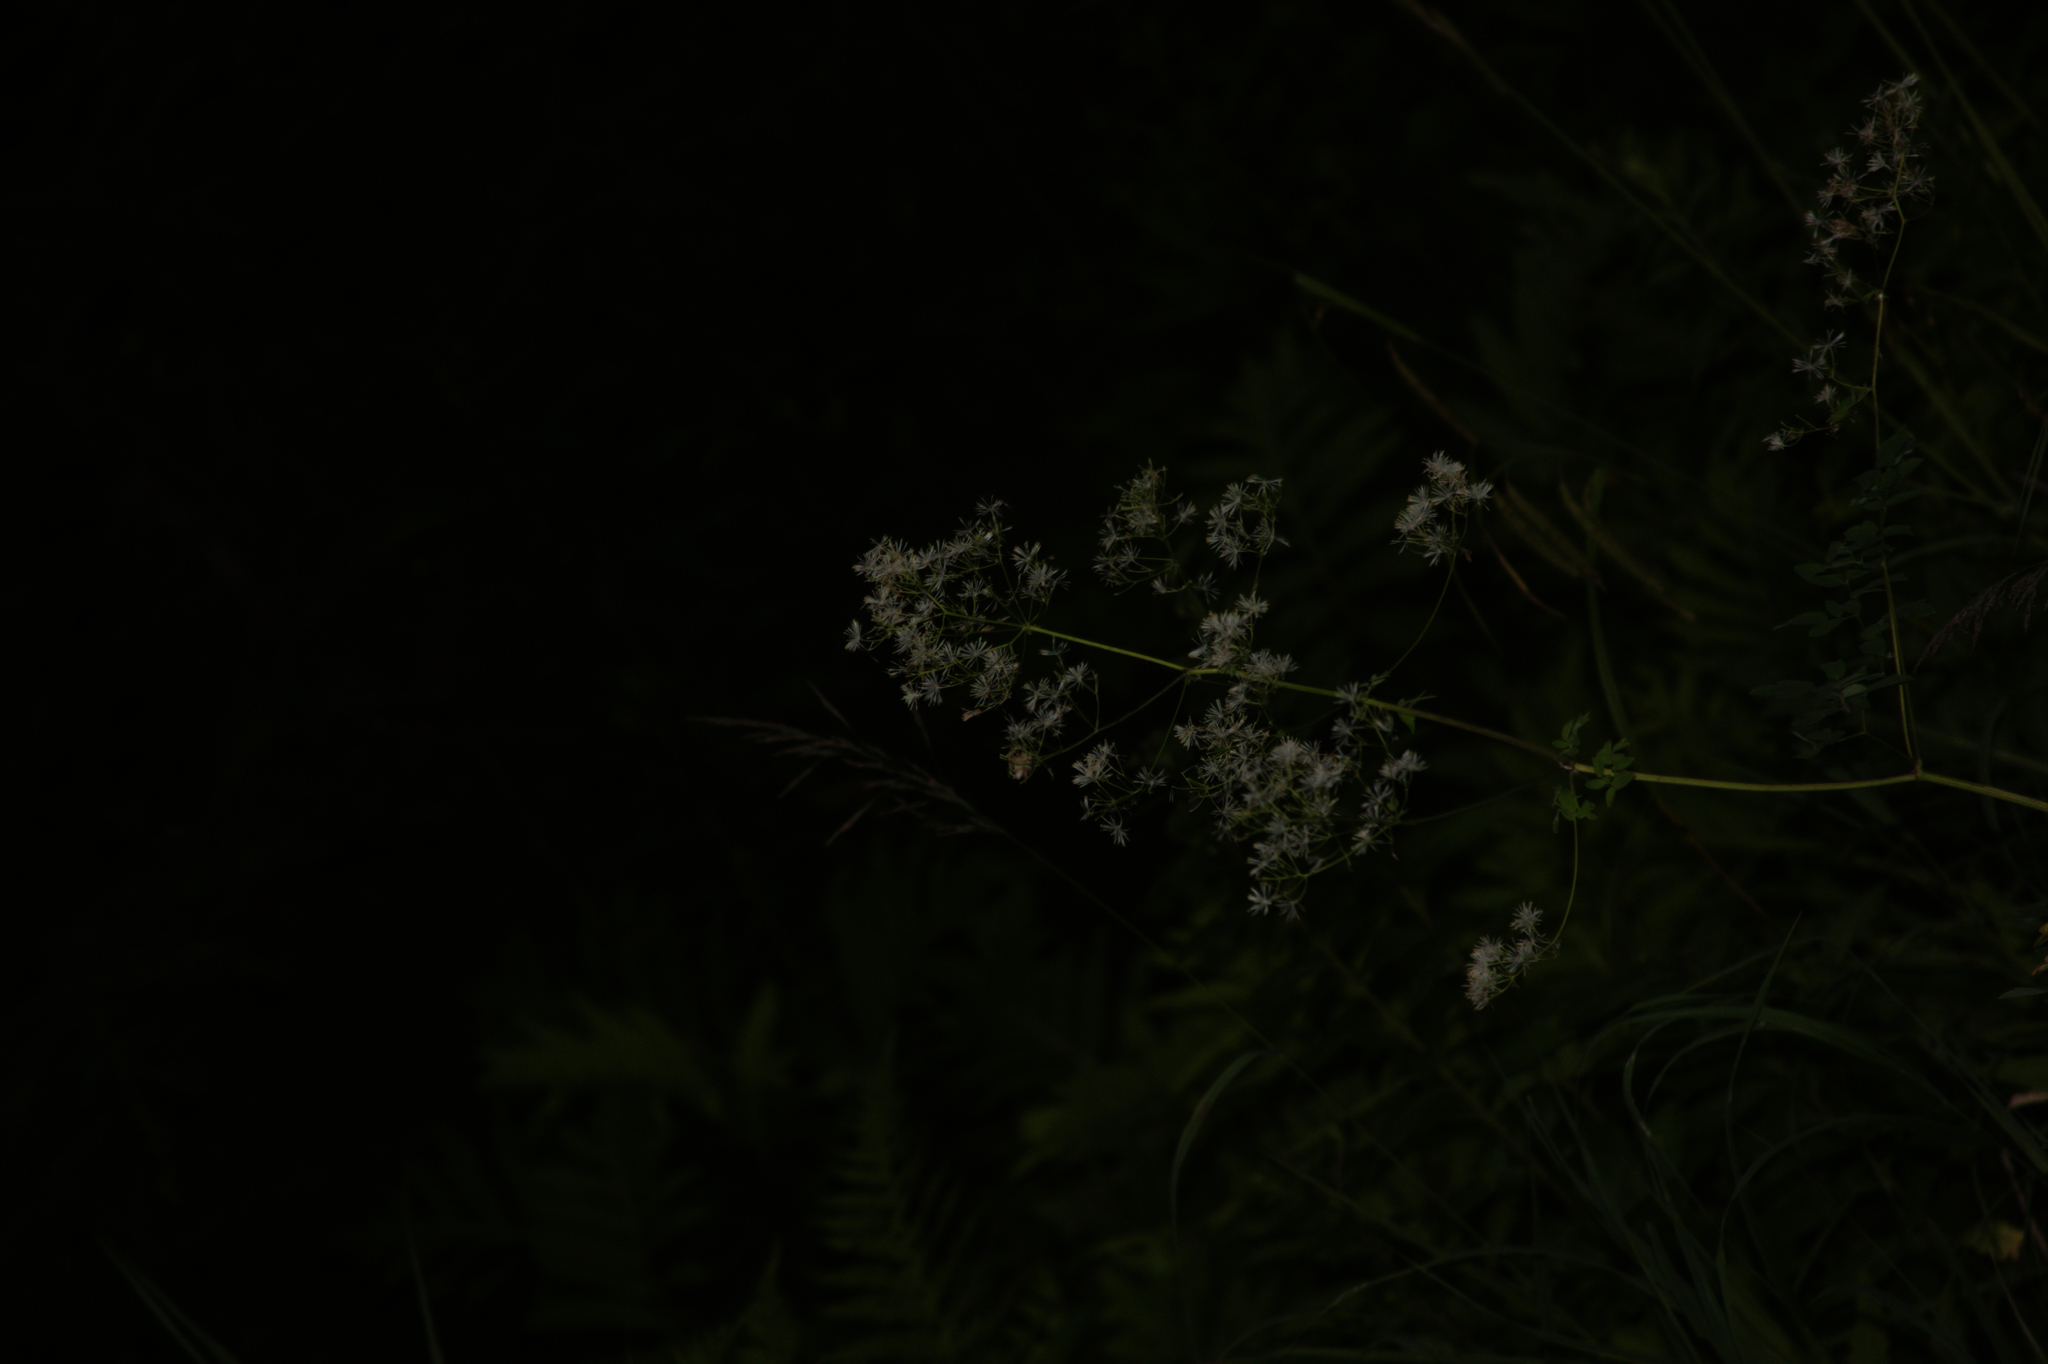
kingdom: Plantae
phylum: Tracheophyta
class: Magnoliopsida
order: Ranunculales
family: Ranunculaceae
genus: Thalictrum
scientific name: Thalictrum pubescens
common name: King-of-the-meadow
